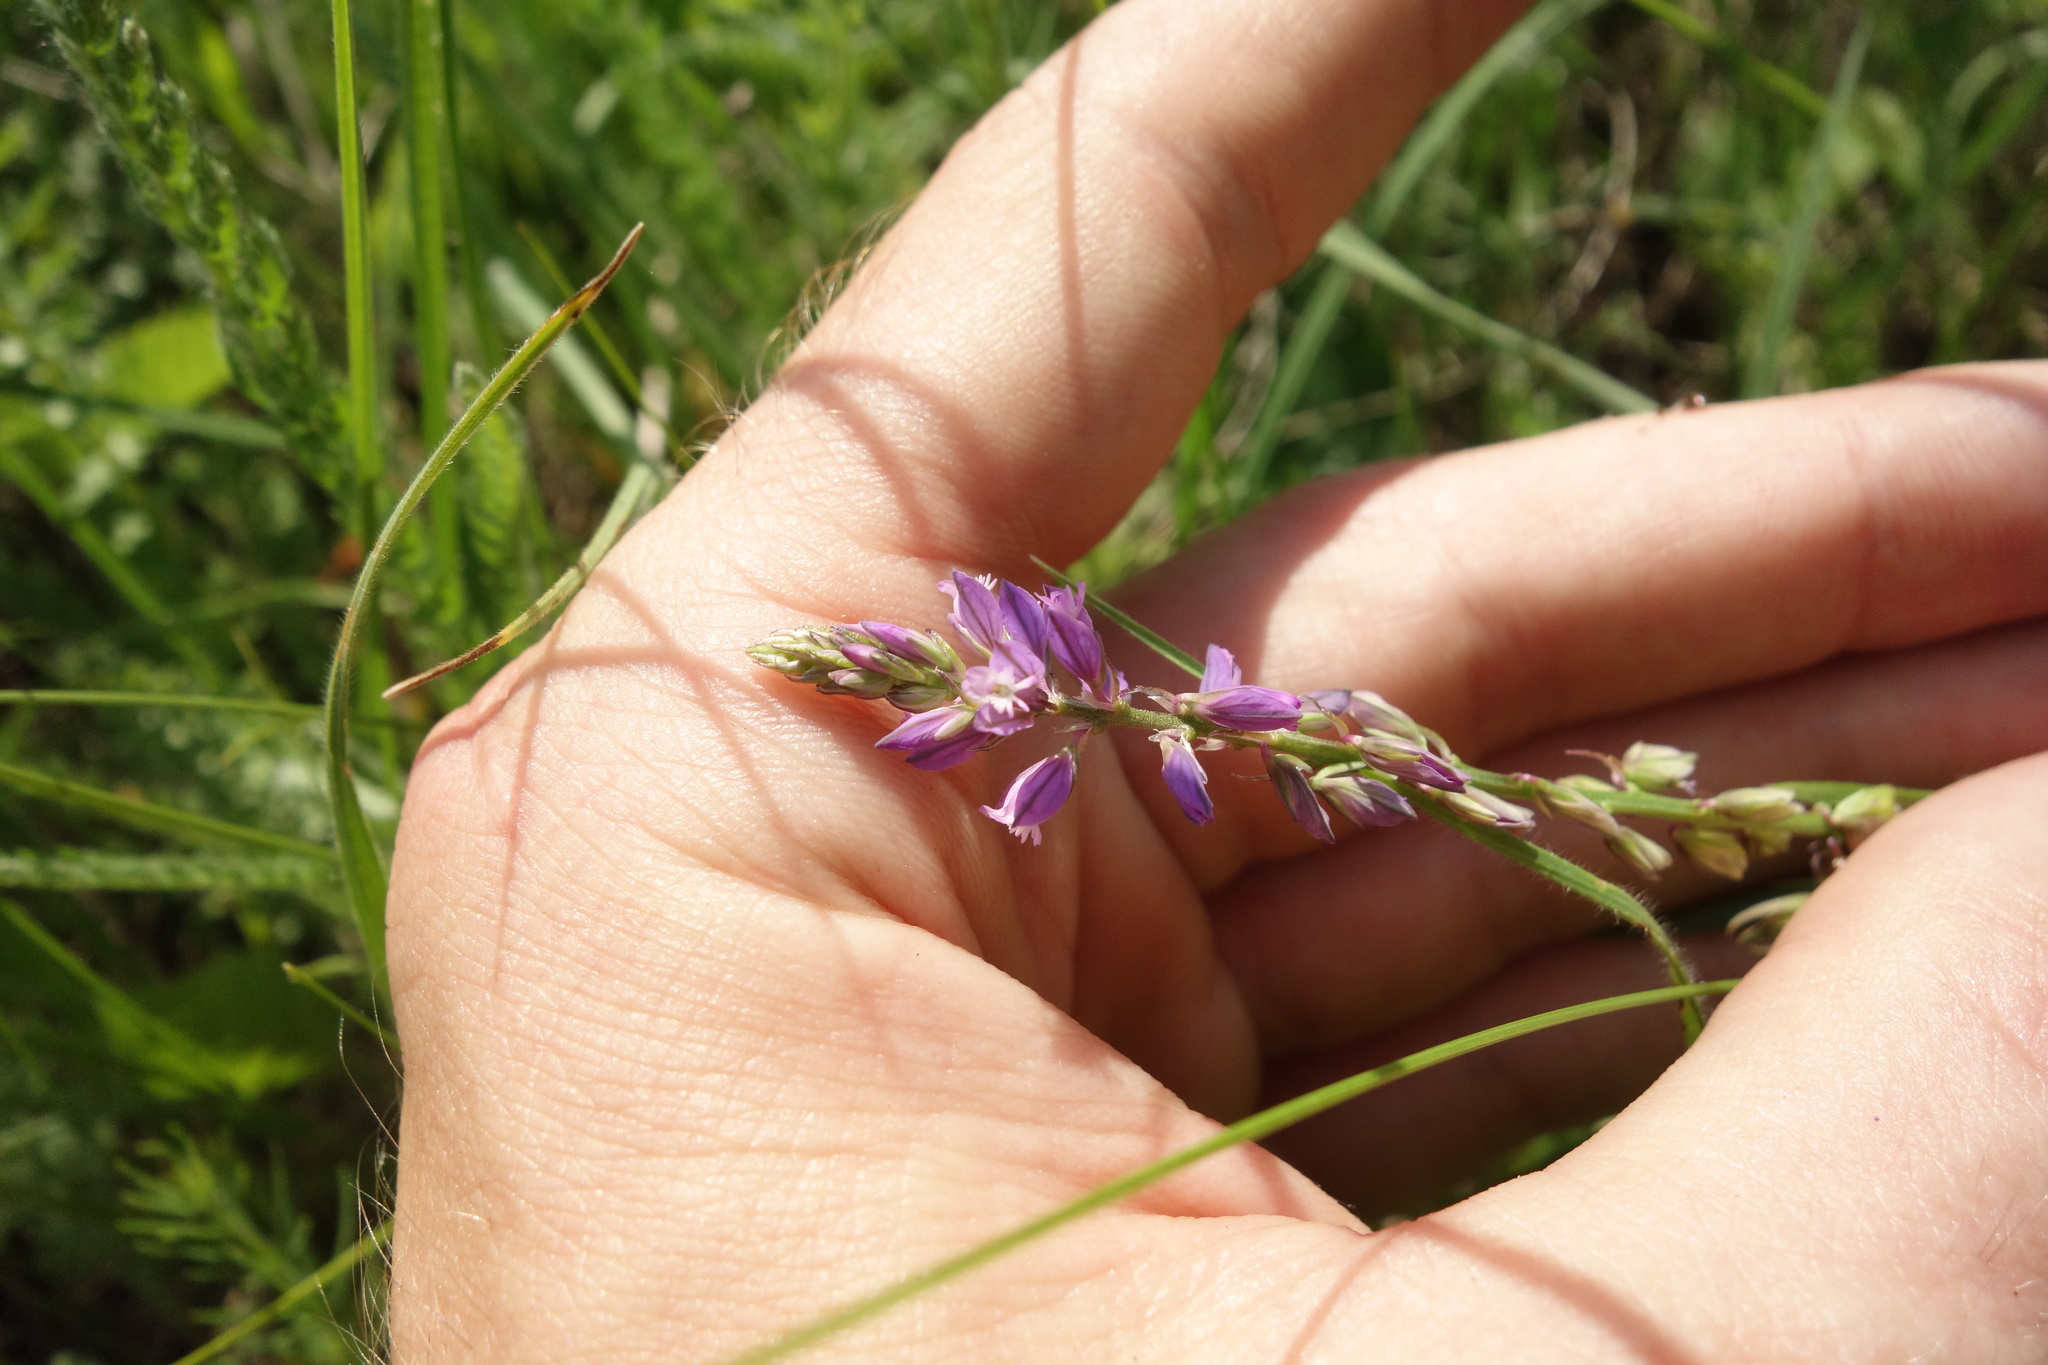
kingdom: Plantae
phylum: Tracheophyta
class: Magnoliopsida
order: Fabales
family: Polygalaceae
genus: Polygala
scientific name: Polygala comosa
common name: Tufted milkwort
